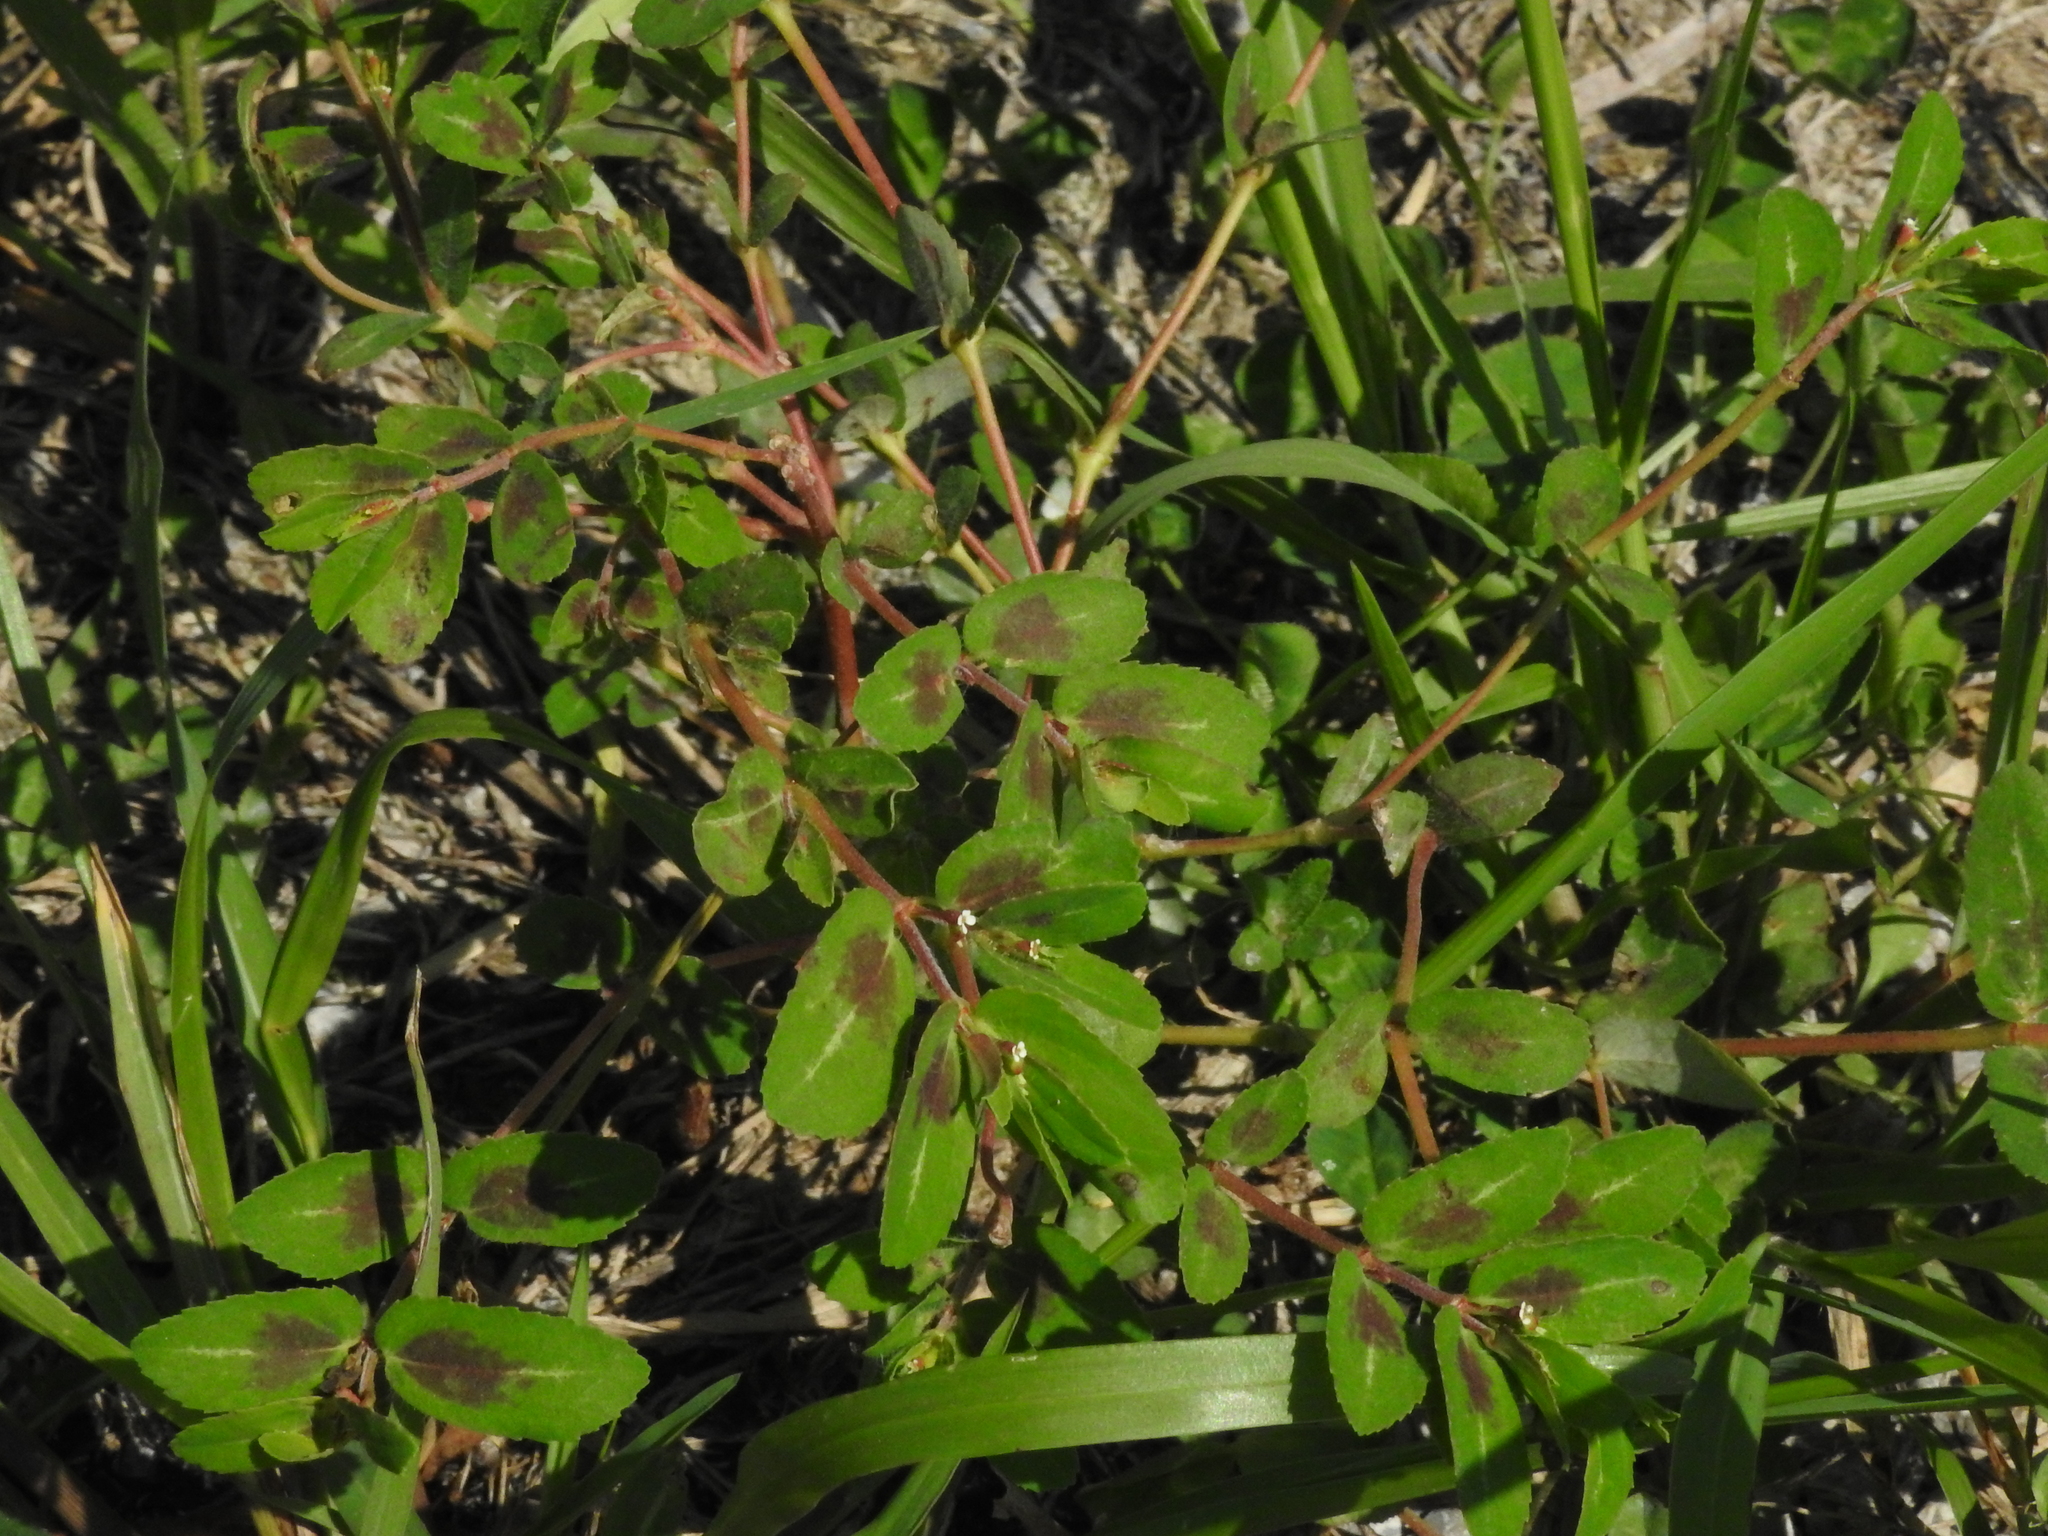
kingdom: Plantae
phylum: Tracheophyta
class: Magnoliopsida
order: Malpighiales
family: Euphorbiaceae
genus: Euphorbia
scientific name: Euphorbia nutans
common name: Eyebane
